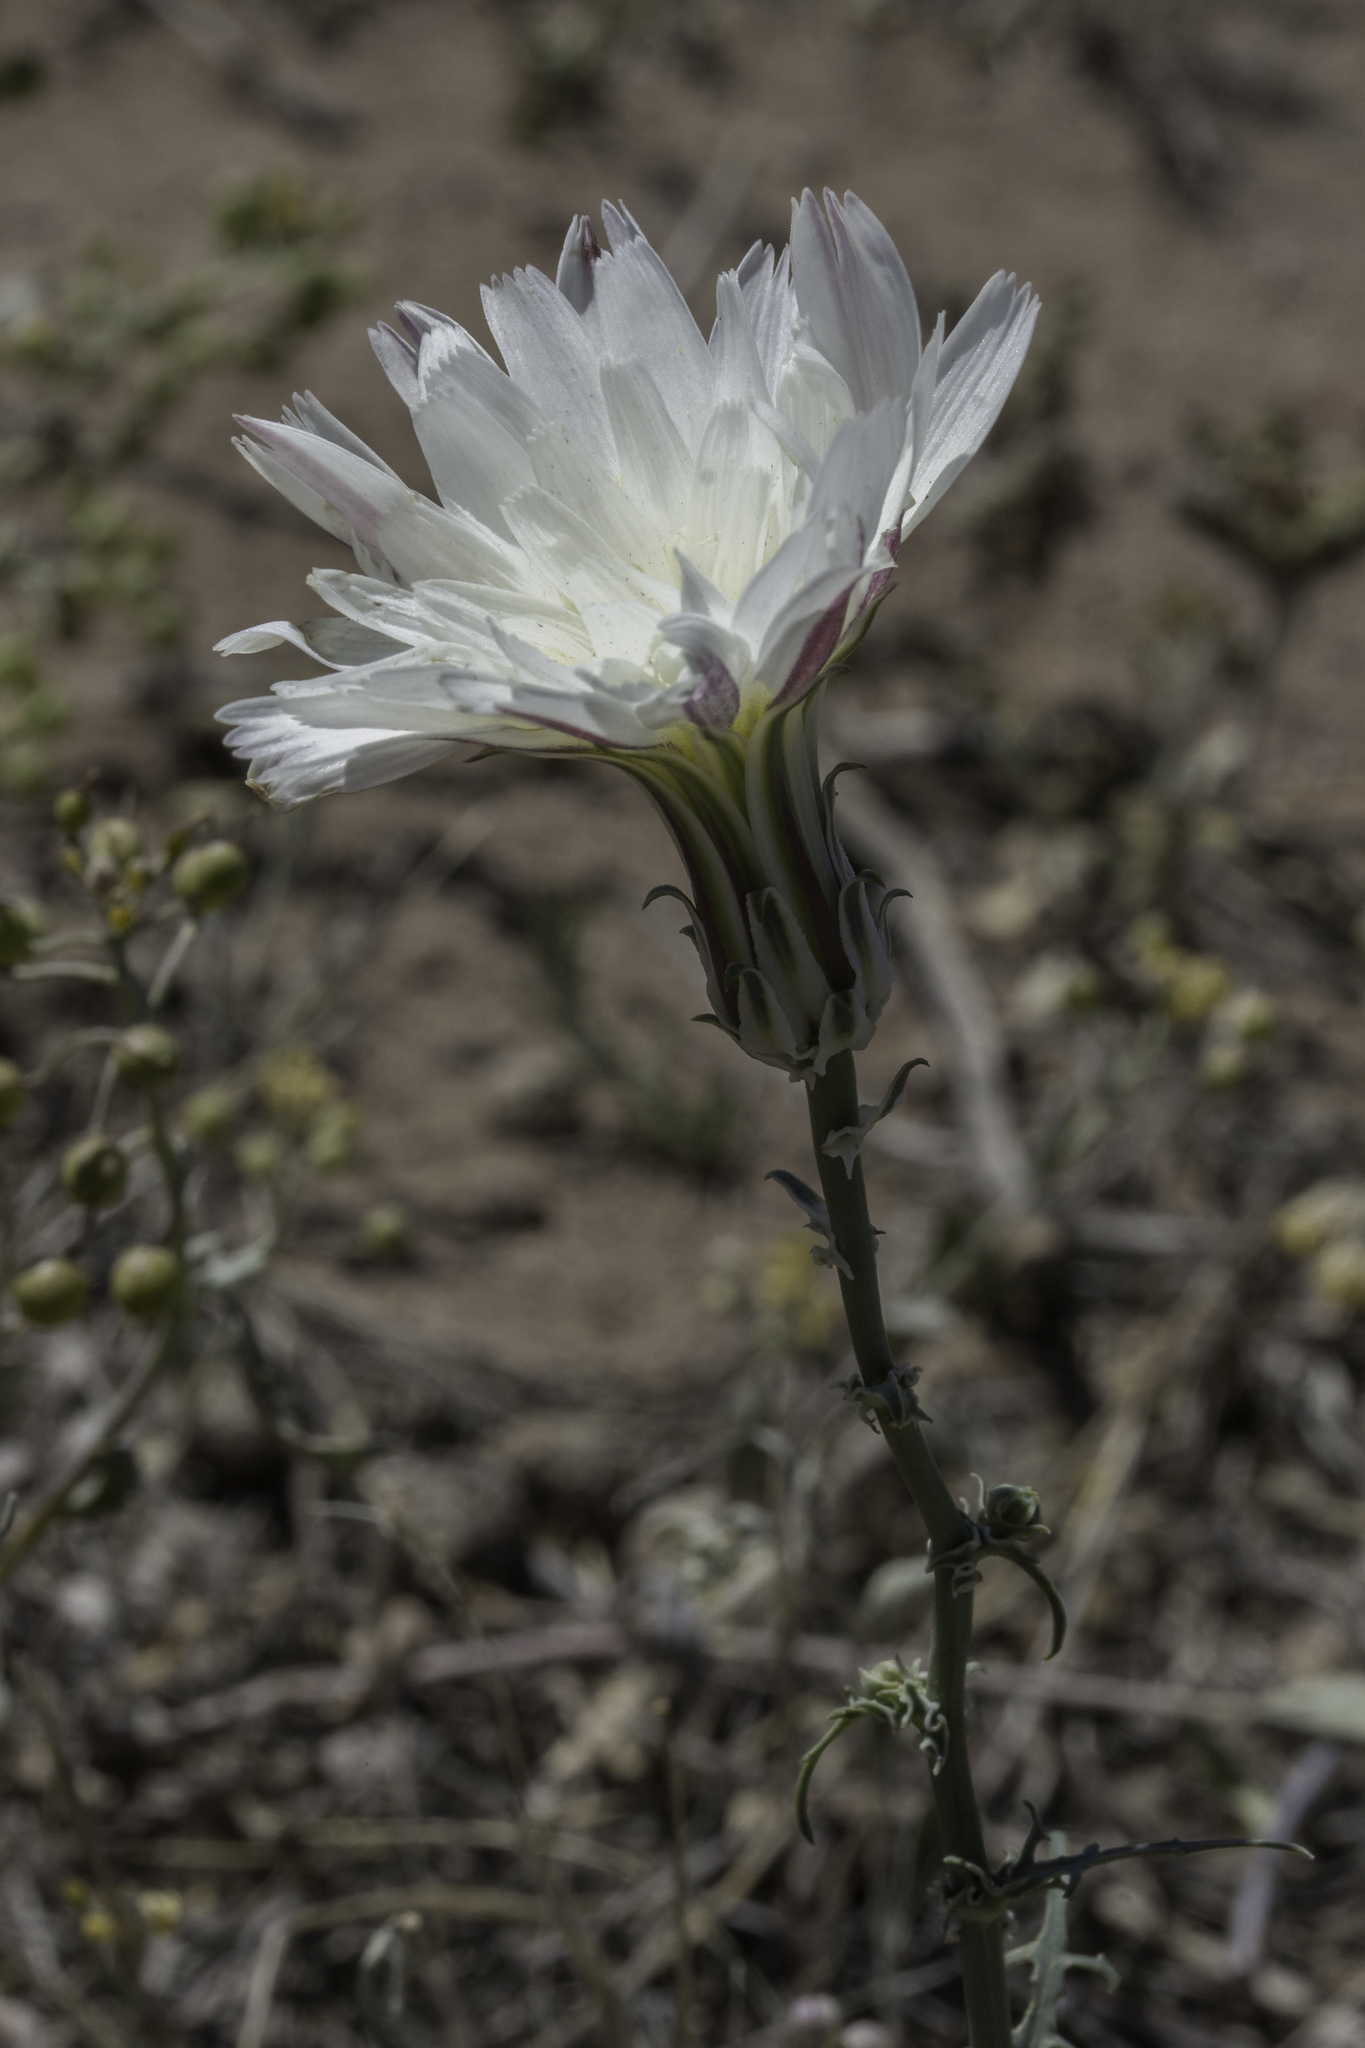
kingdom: Plantae
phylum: Tracheophyta
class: Magnoliopsida
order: Asterales
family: Asteraceae
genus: Rafinesquia
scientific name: Rafinesquia neomexicana
